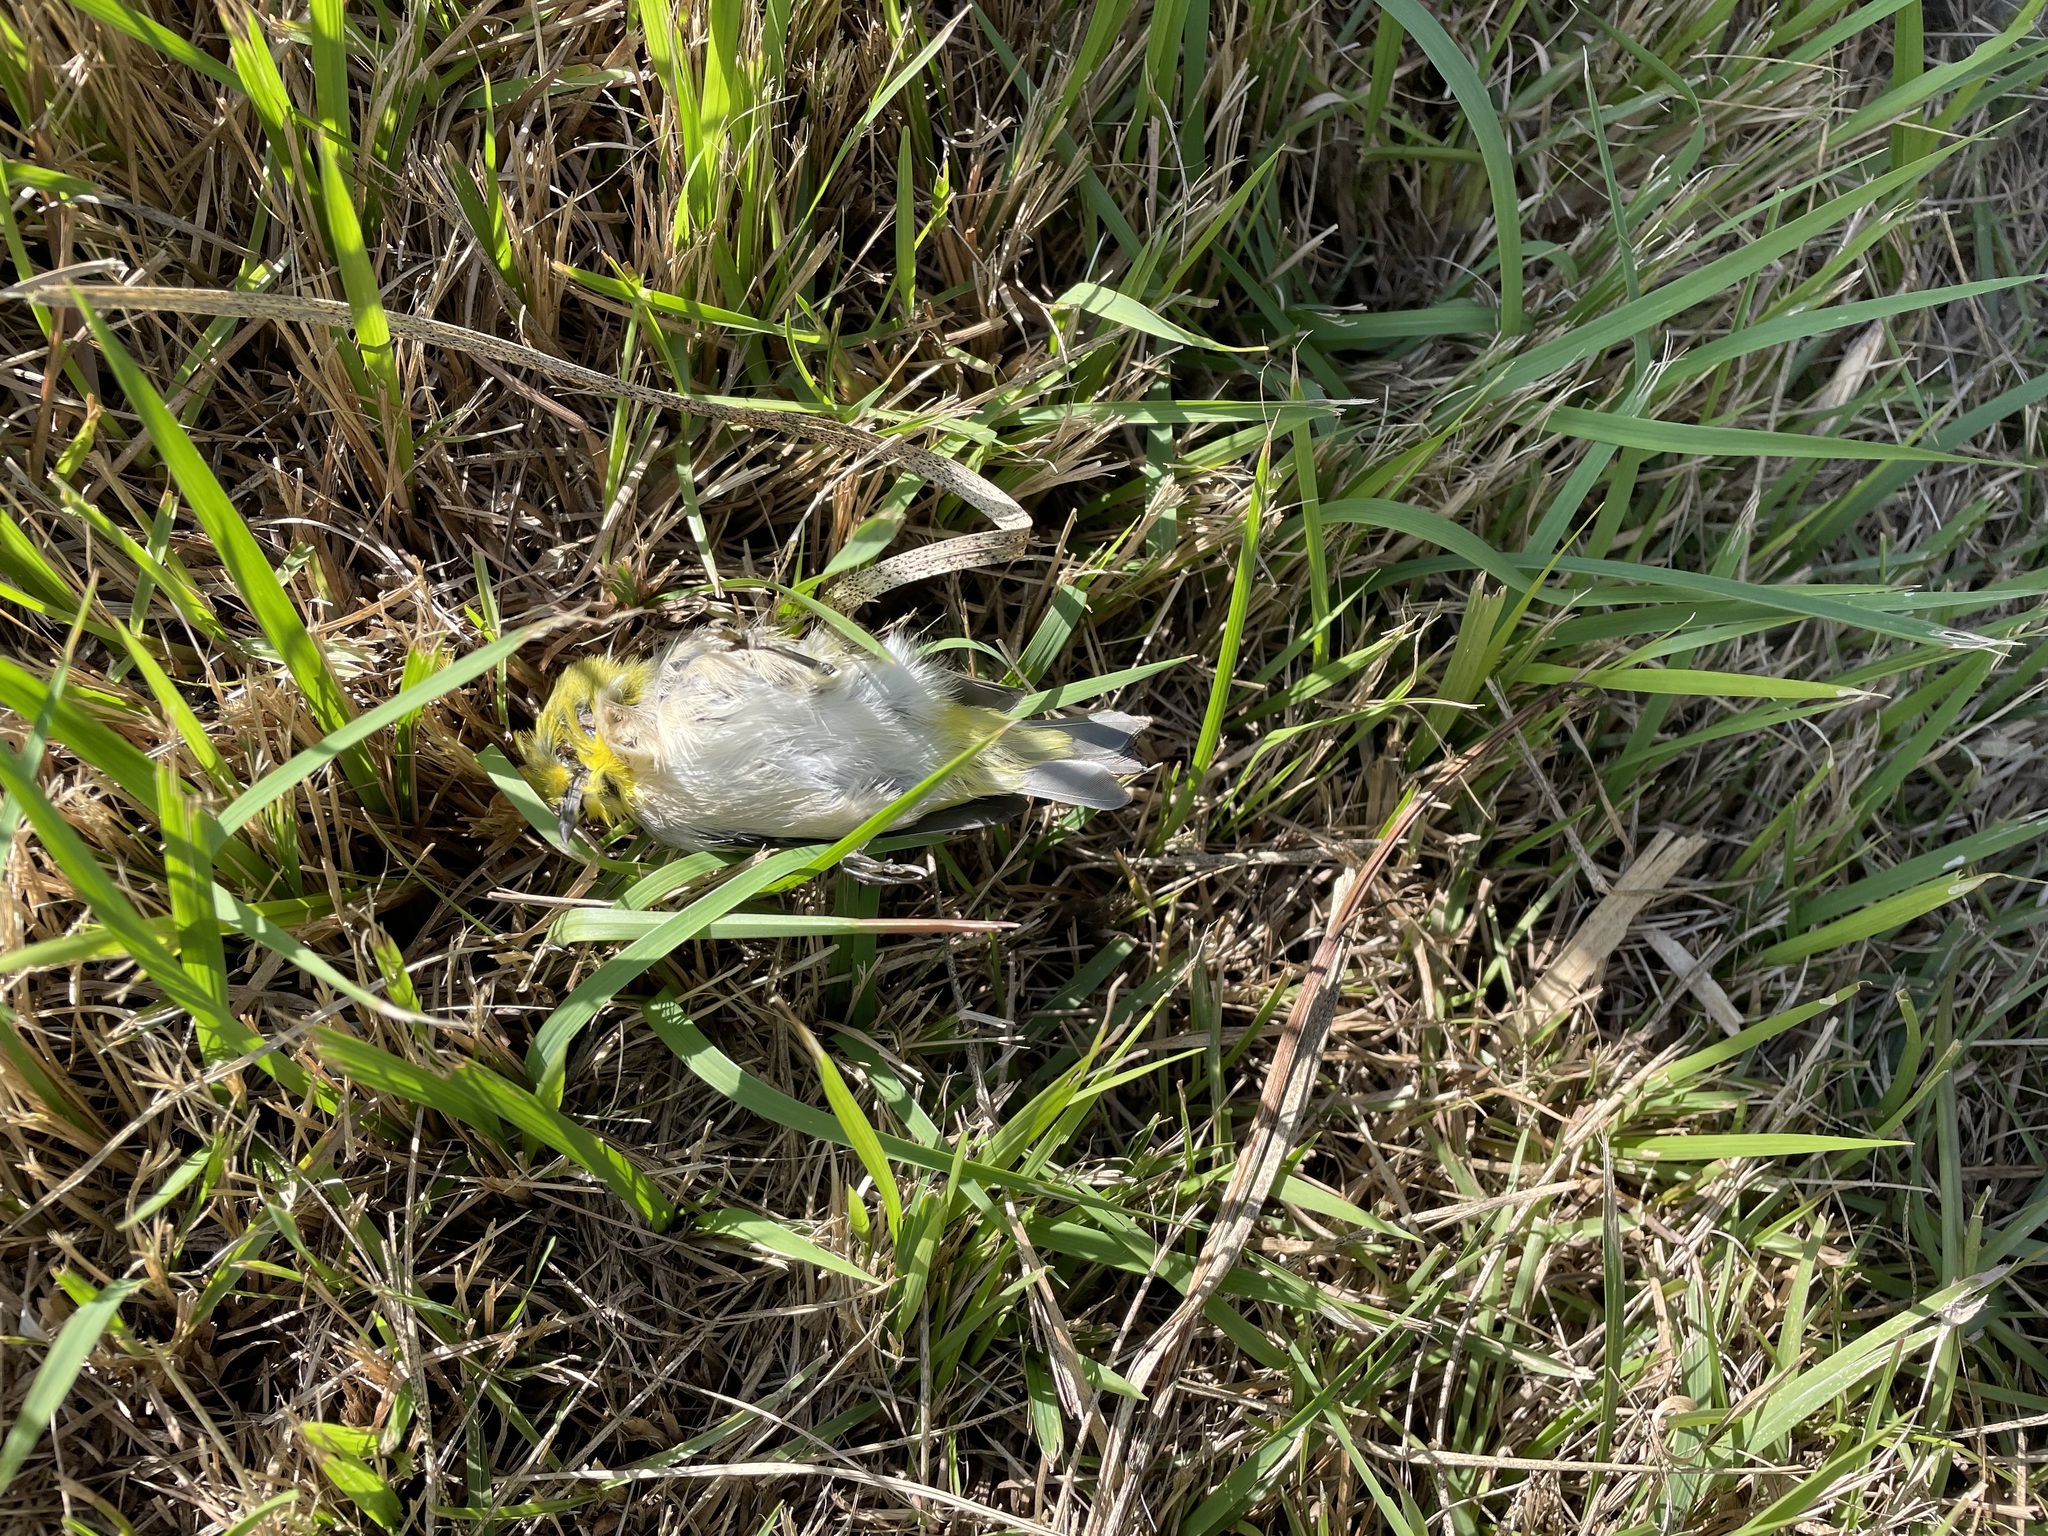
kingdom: Animalia
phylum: Chordata
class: Aves
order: Passeriformes
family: Zosteropidae
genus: Zosterops
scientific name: Zosterops simplex
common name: Swinhoe's white-eye
